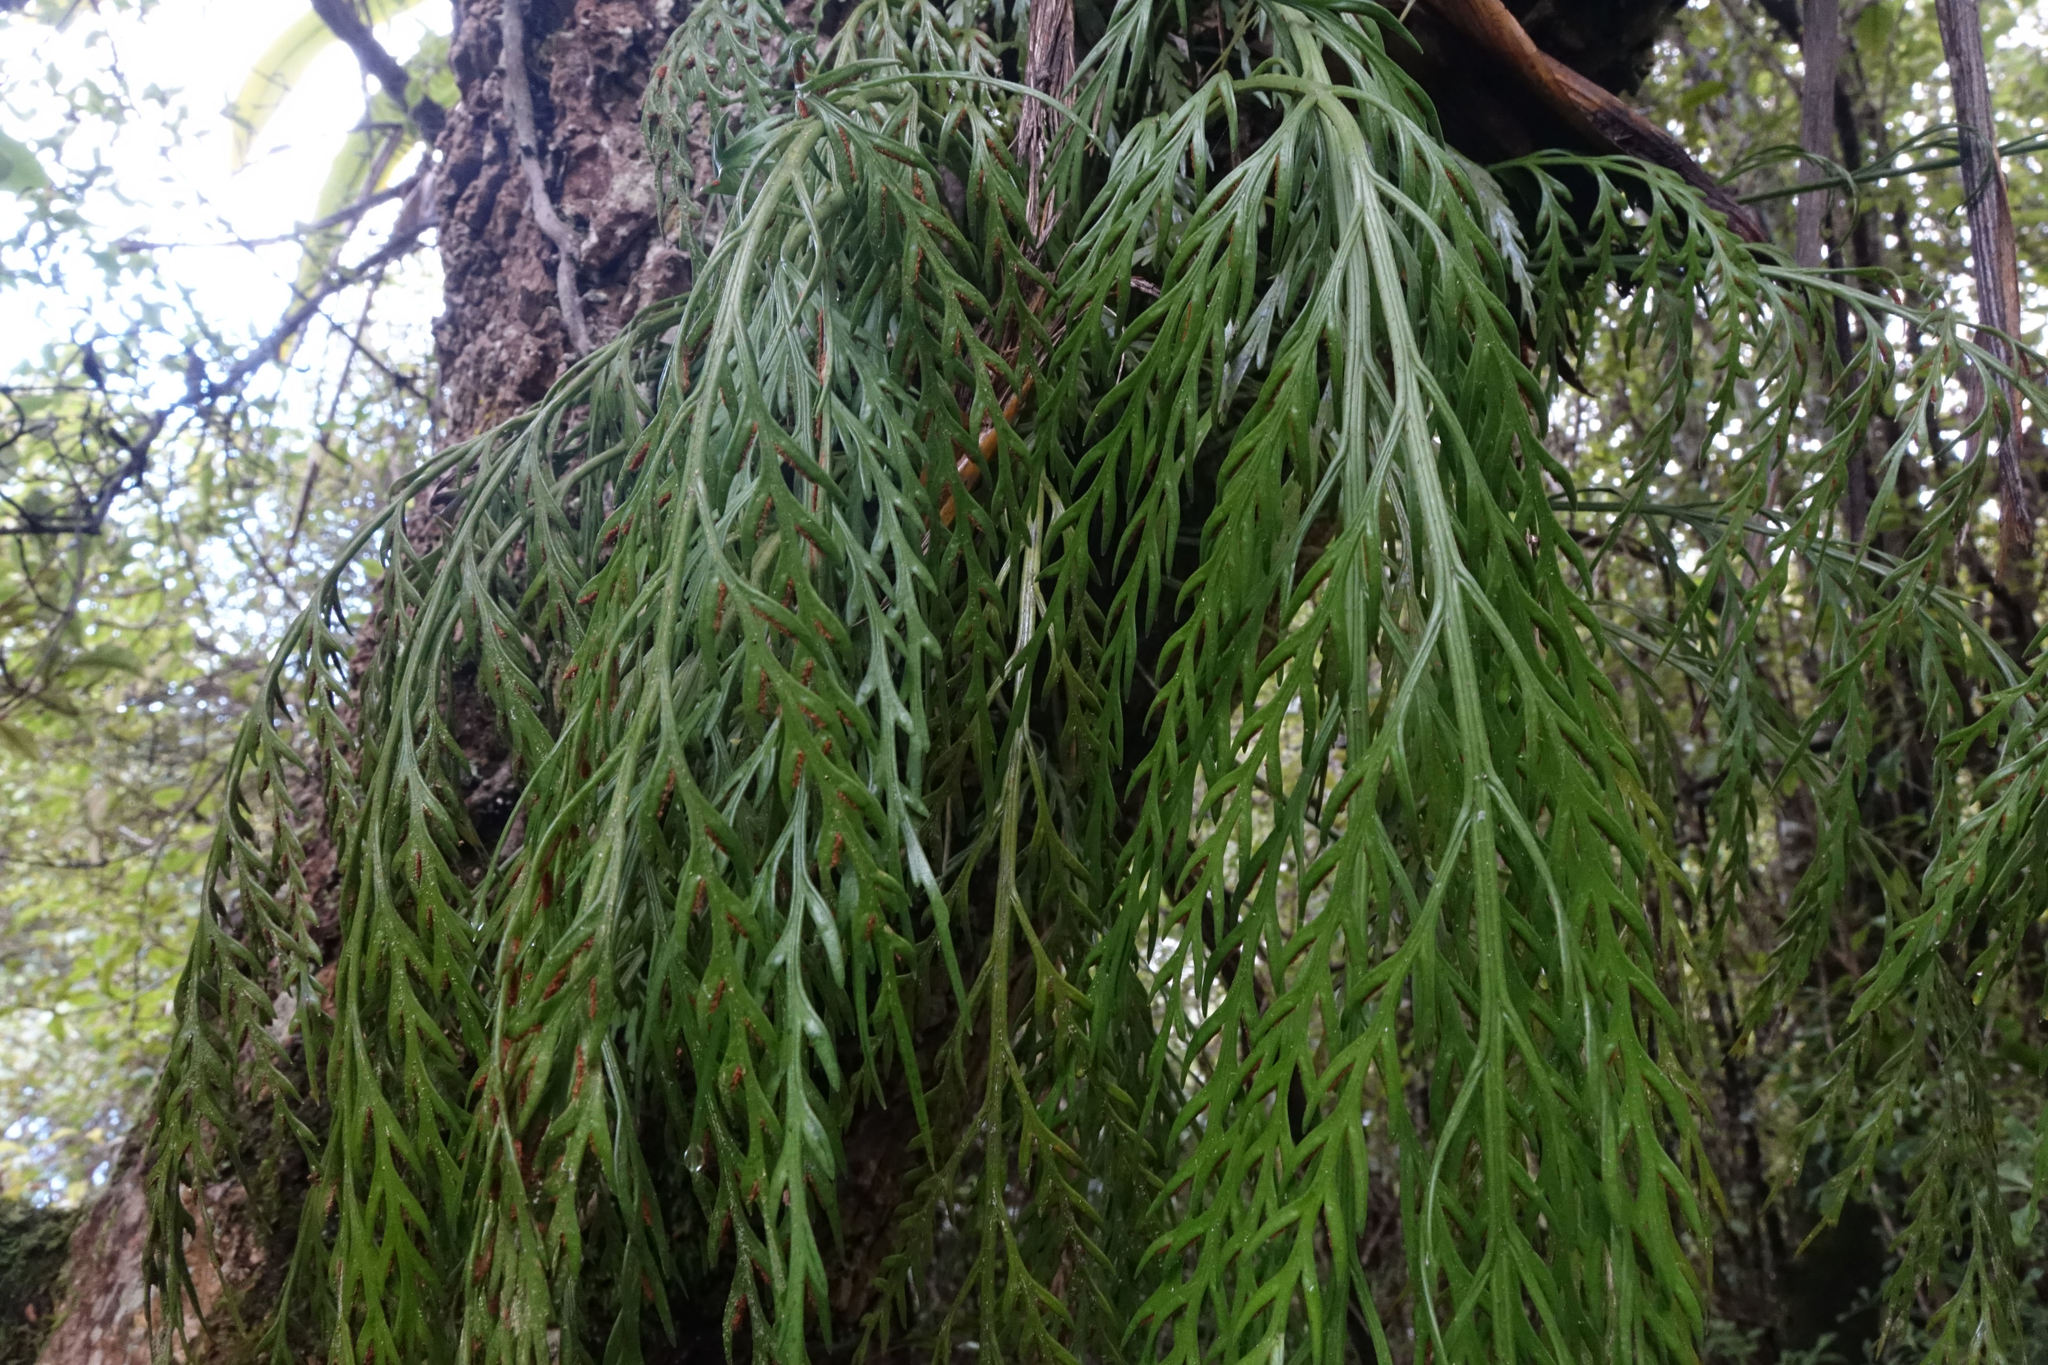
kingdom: Plantae
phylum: Tracheophyta
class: Polypodiopsida
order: Polypodiales
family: Aspleniaceae
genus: Asplenium
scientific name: Asplenium flaccidum
